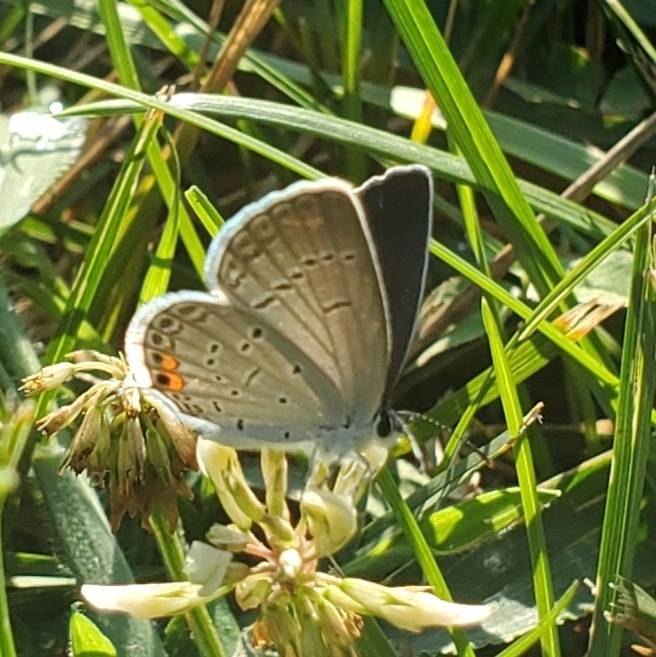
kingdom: Animalia
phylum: Arthropoda
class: Insecta
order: Lepidoptera
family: Lycaenidae
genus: Elkalyce
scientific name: Elkalyce comyntas
